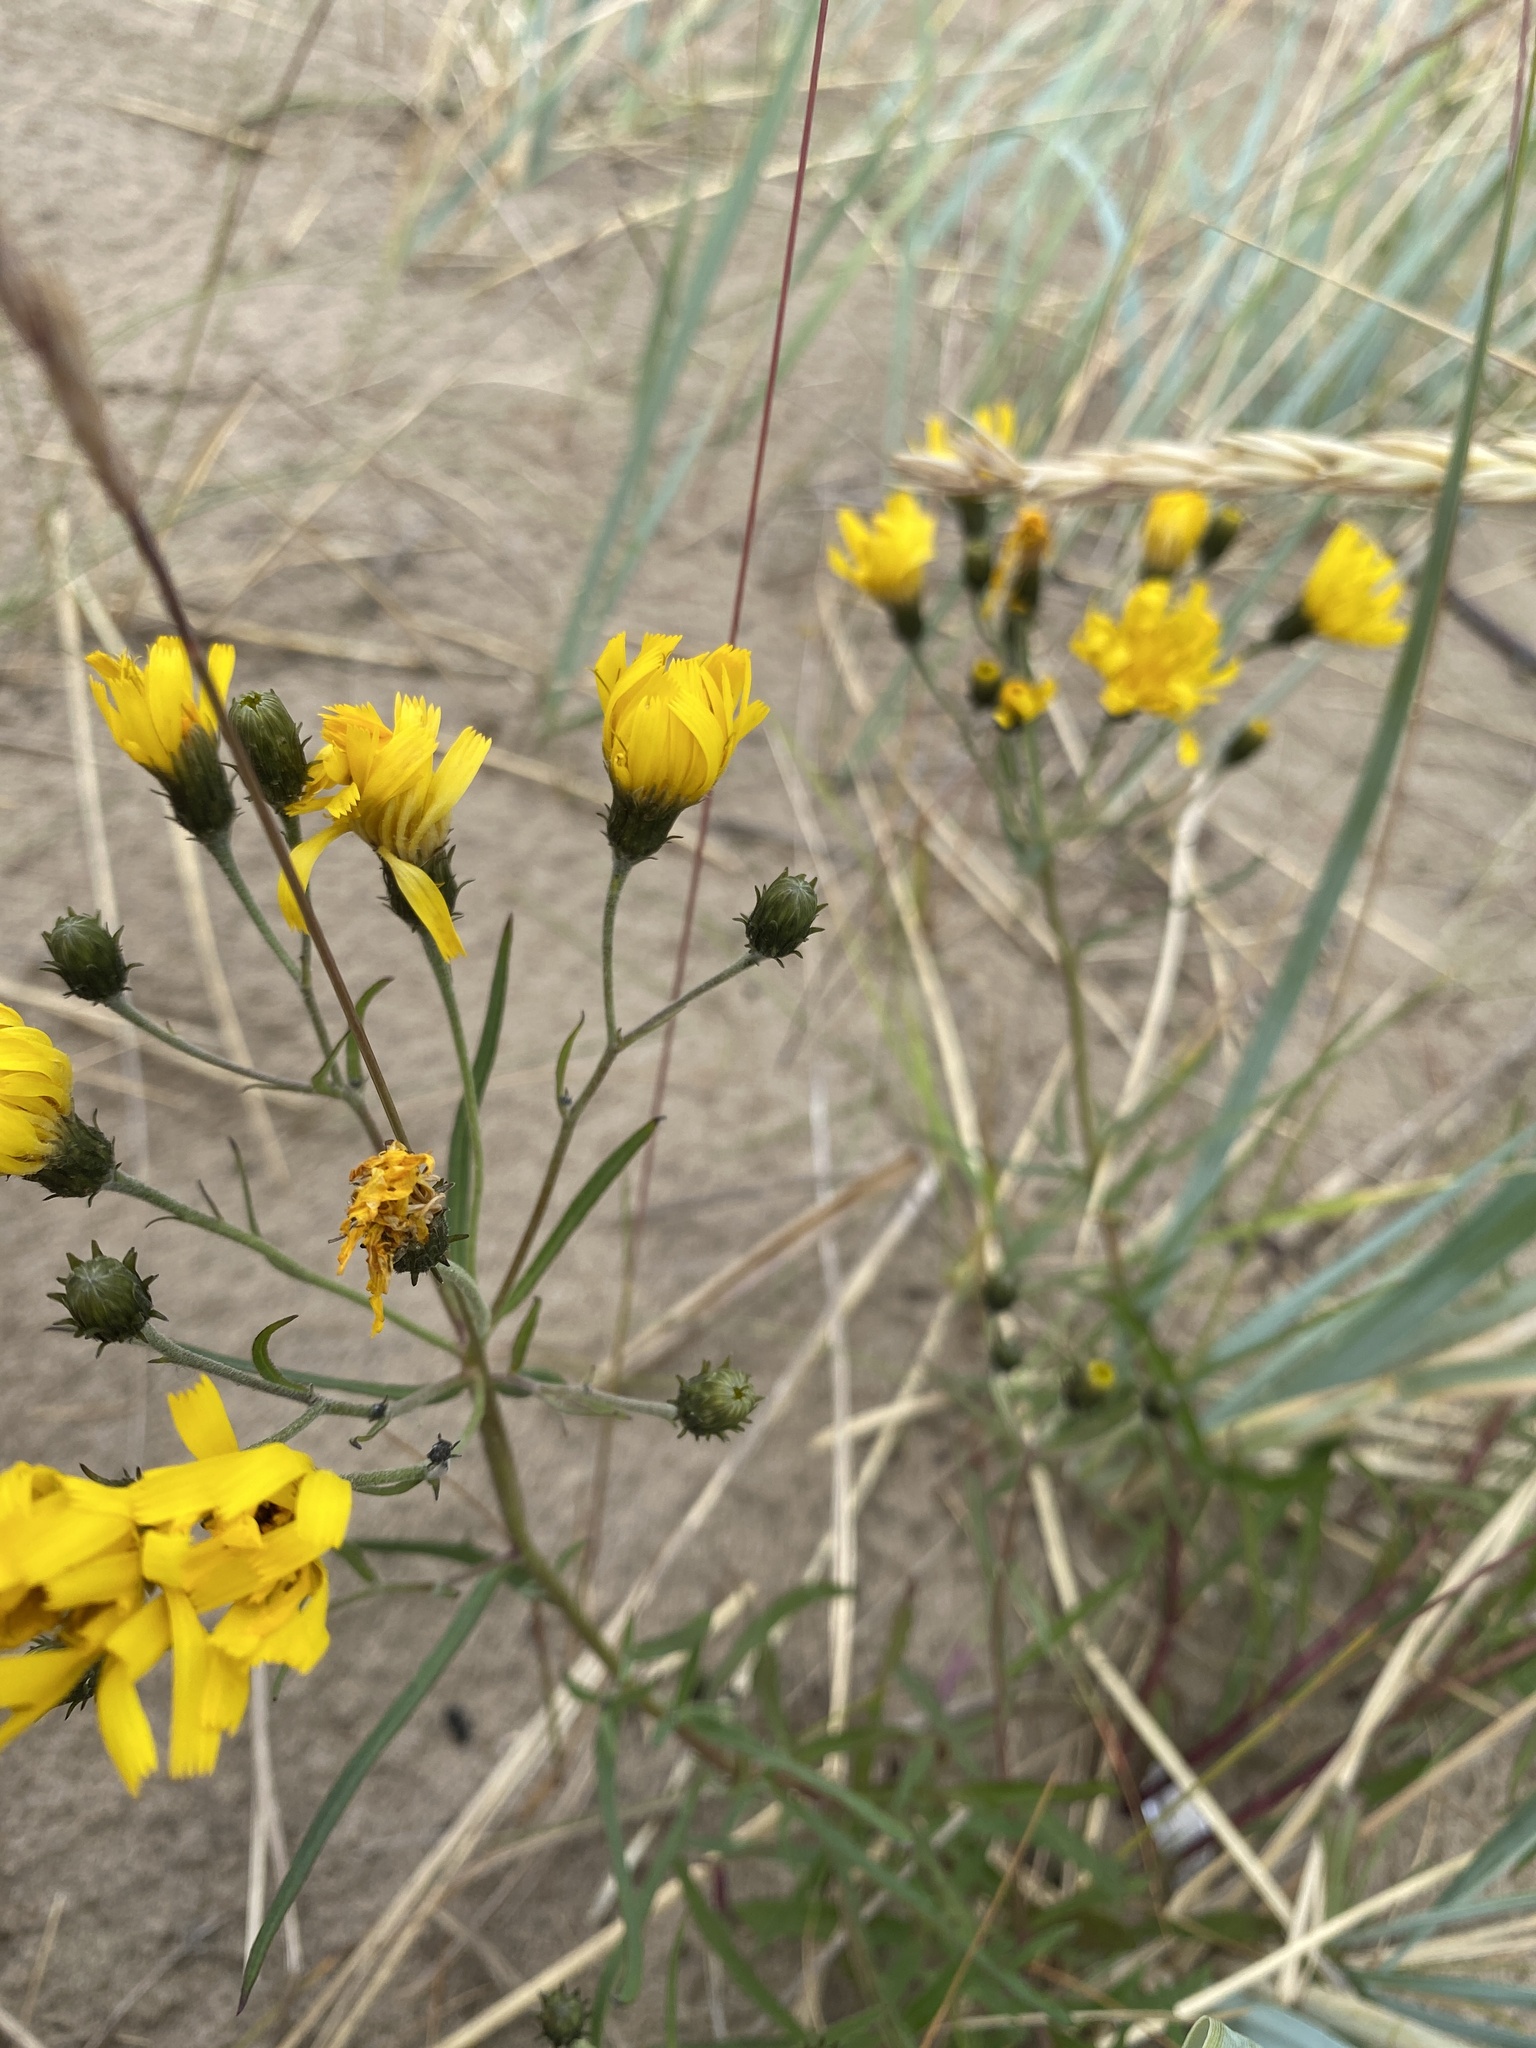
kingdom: Plantae
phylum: Tracheophyta
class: Magnoliopsida
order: Asterales
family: Asteraceae
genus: Hieracium
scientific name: Hieracium umbellatum
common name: Northern hawkweed
